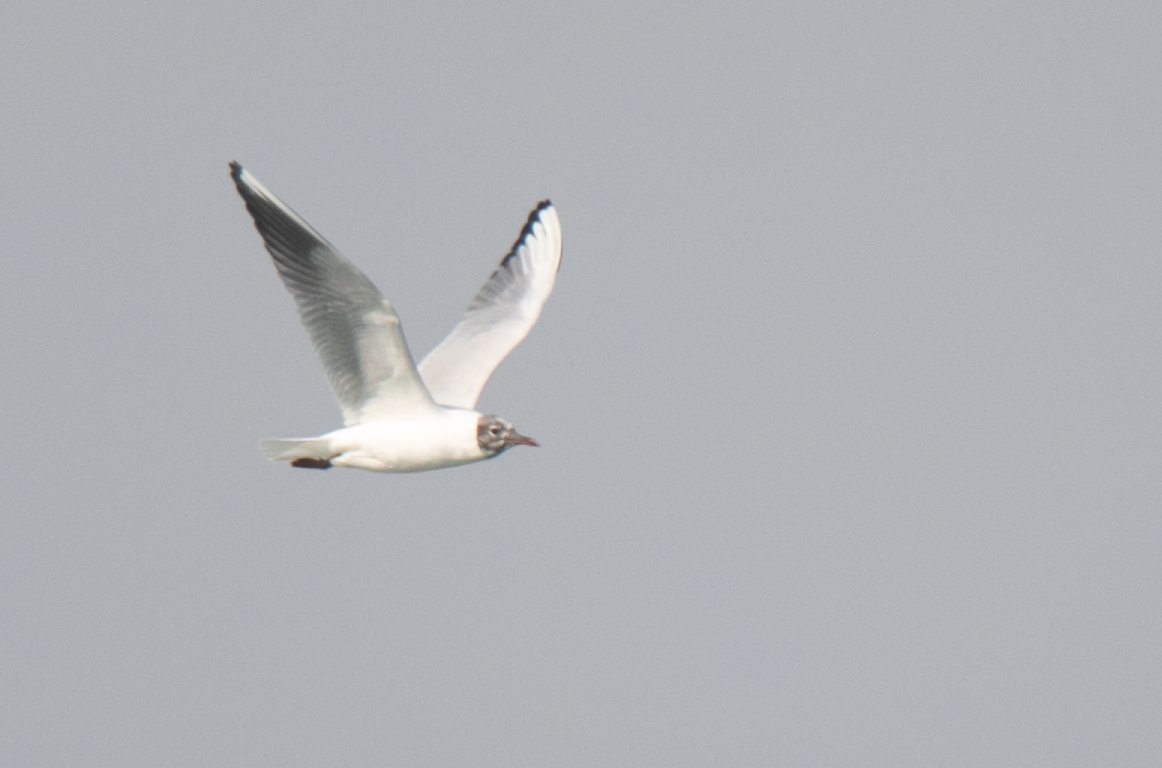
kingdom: Animalia
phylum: Chordata
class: Aves
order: Charadriiformes
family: Laridae
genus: Chroicocephalus
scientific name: Chroicocephalus ridibundus
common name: Black-headed gull
